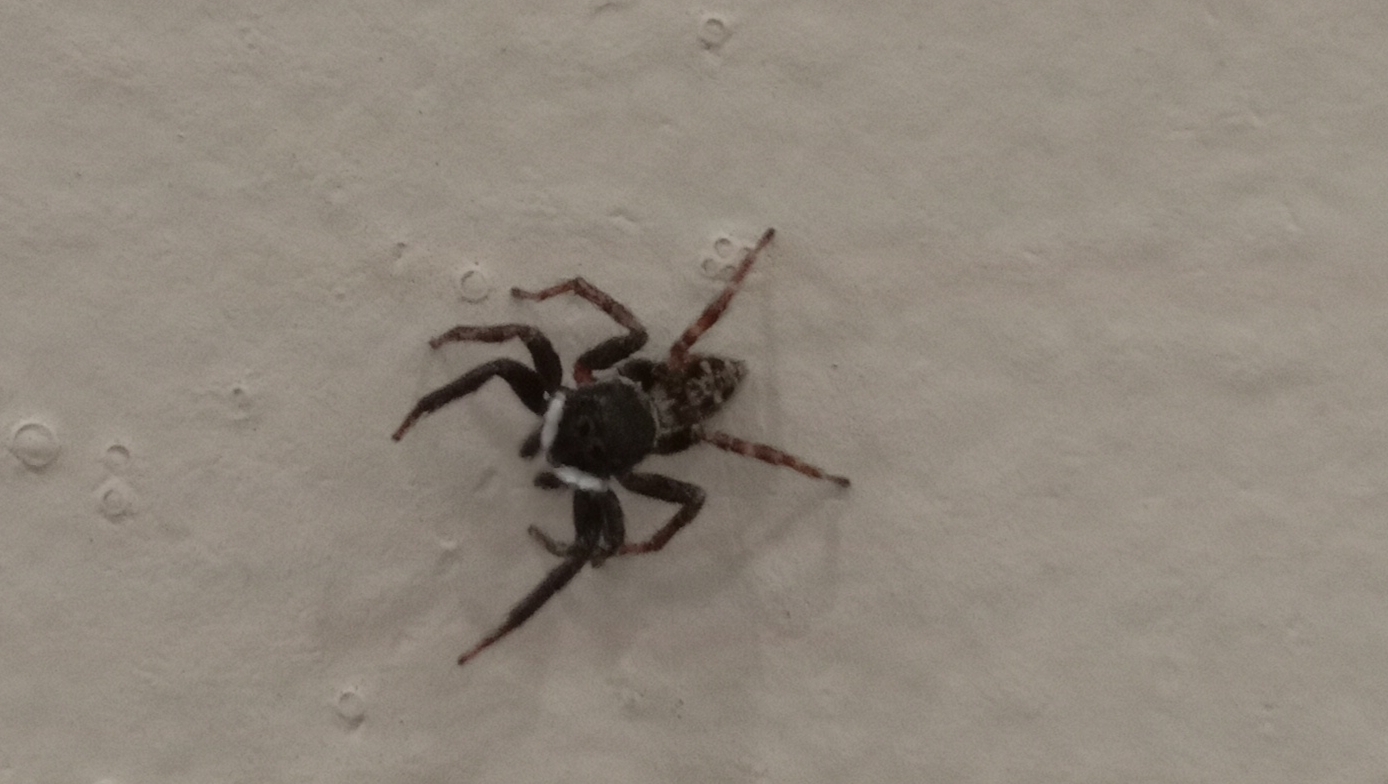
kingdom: Animalia
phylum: Arthropoda
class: Arachnida
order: Araneae
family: Salticidae
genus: Hasarius
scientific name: Hasarius adansoni
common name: Jumping spider
